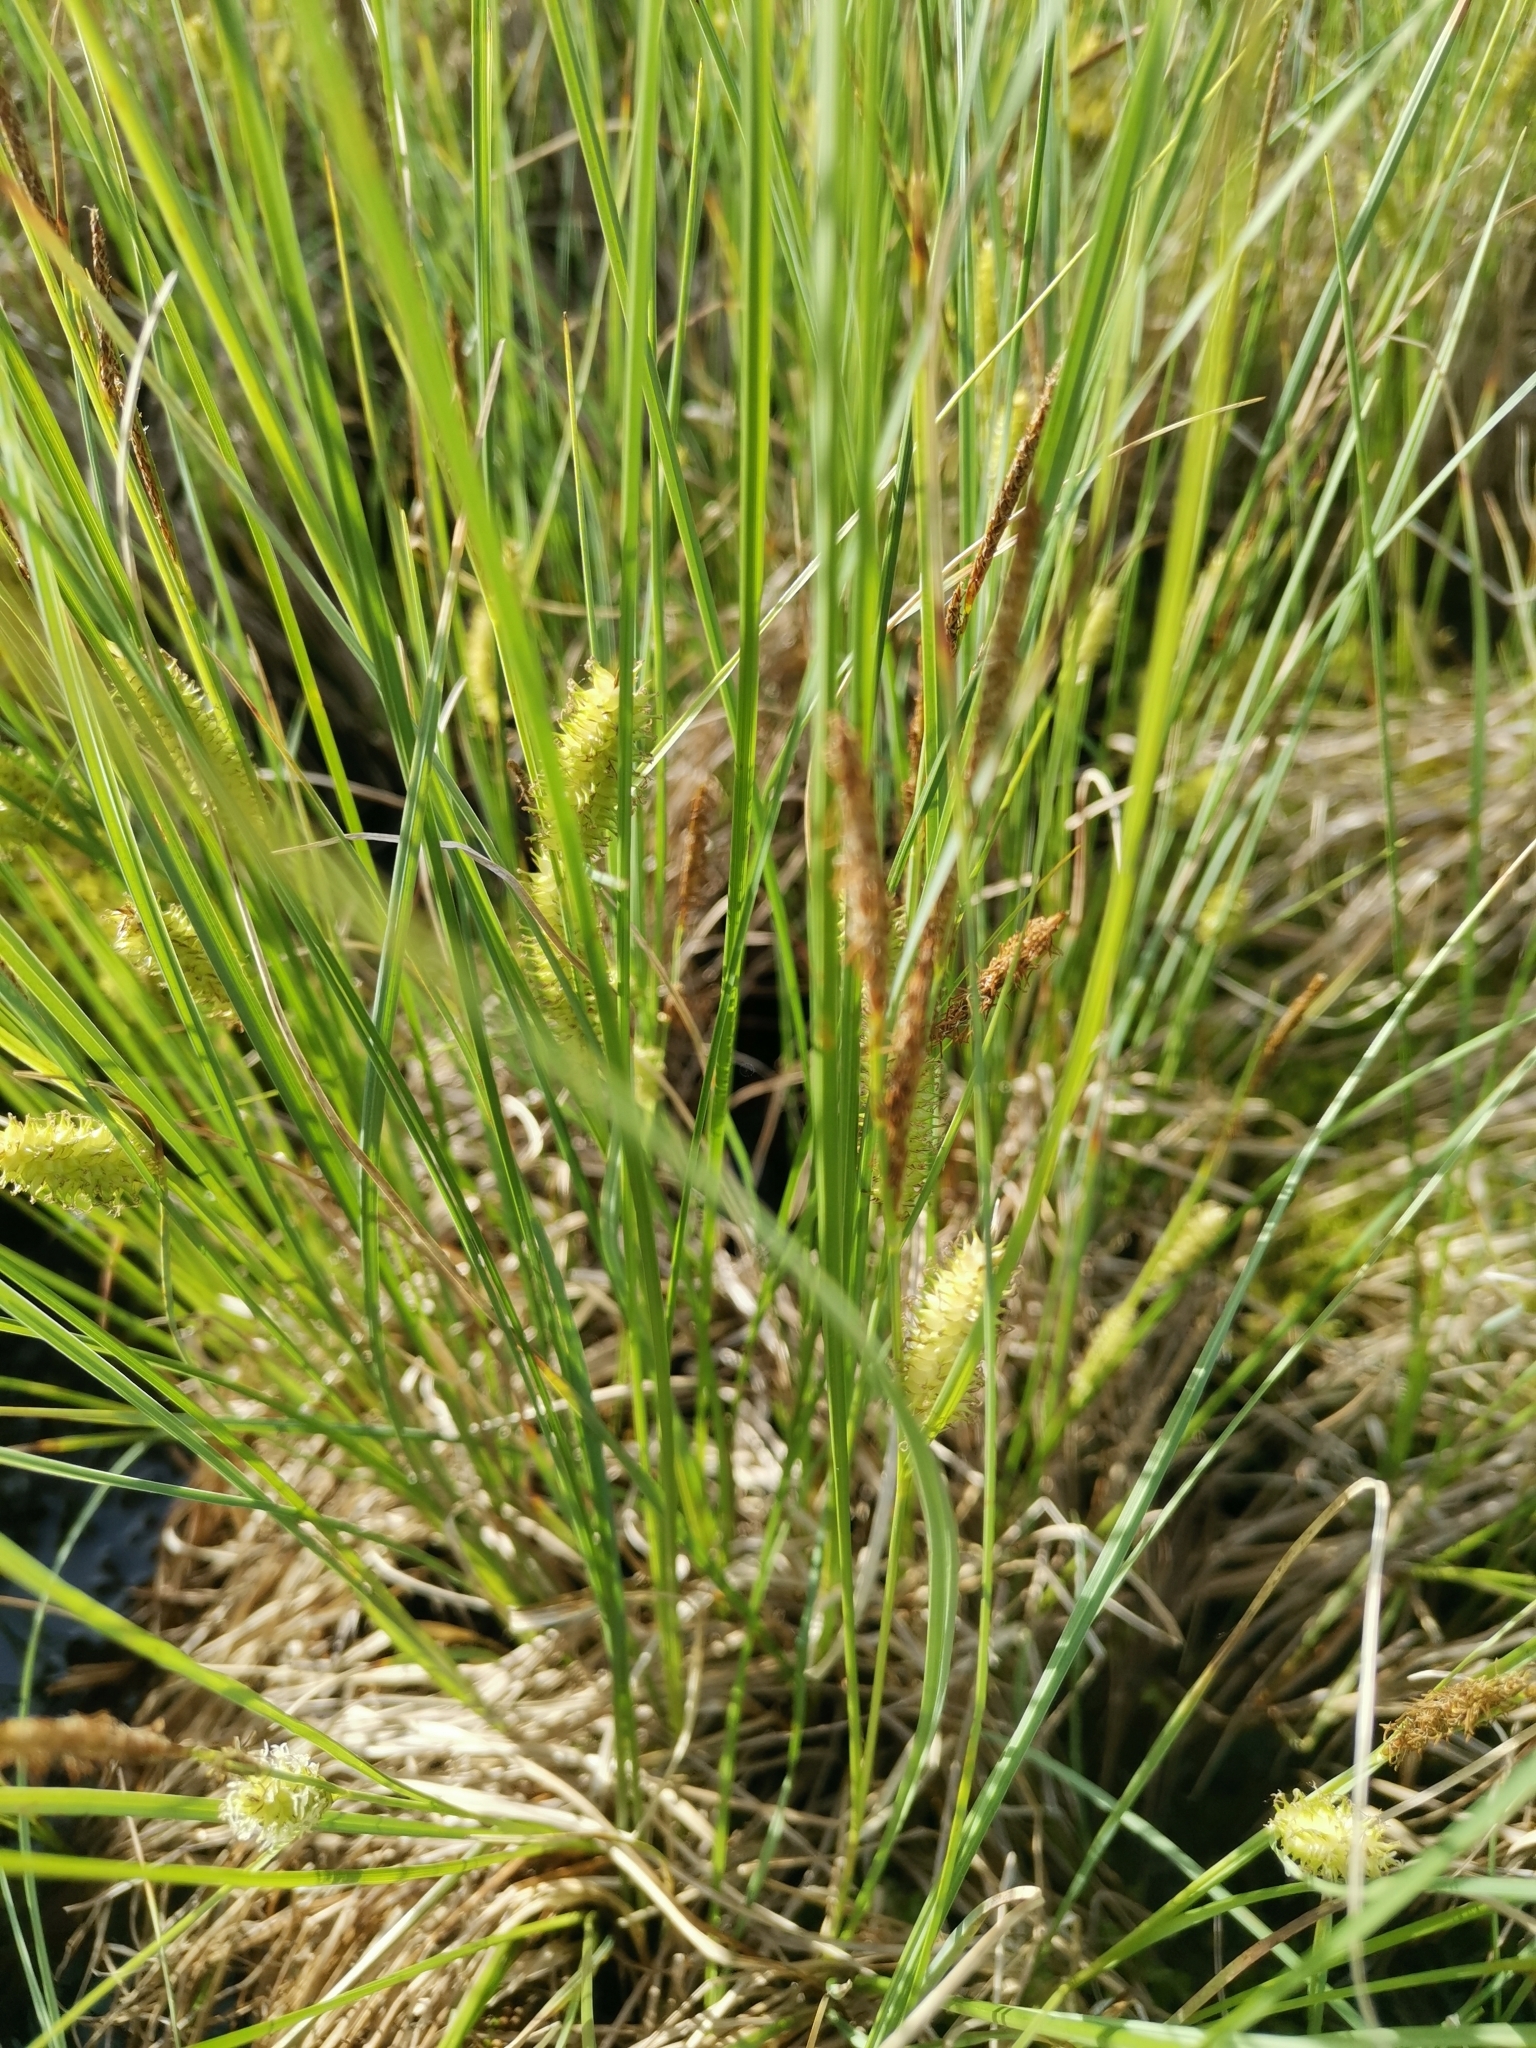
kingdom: Plantae
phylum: Tracheophyta
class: Liliopsida
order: Poales
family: Cyperaceae
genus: Carex
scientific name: Carex rostrata
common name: Bottle sedge
